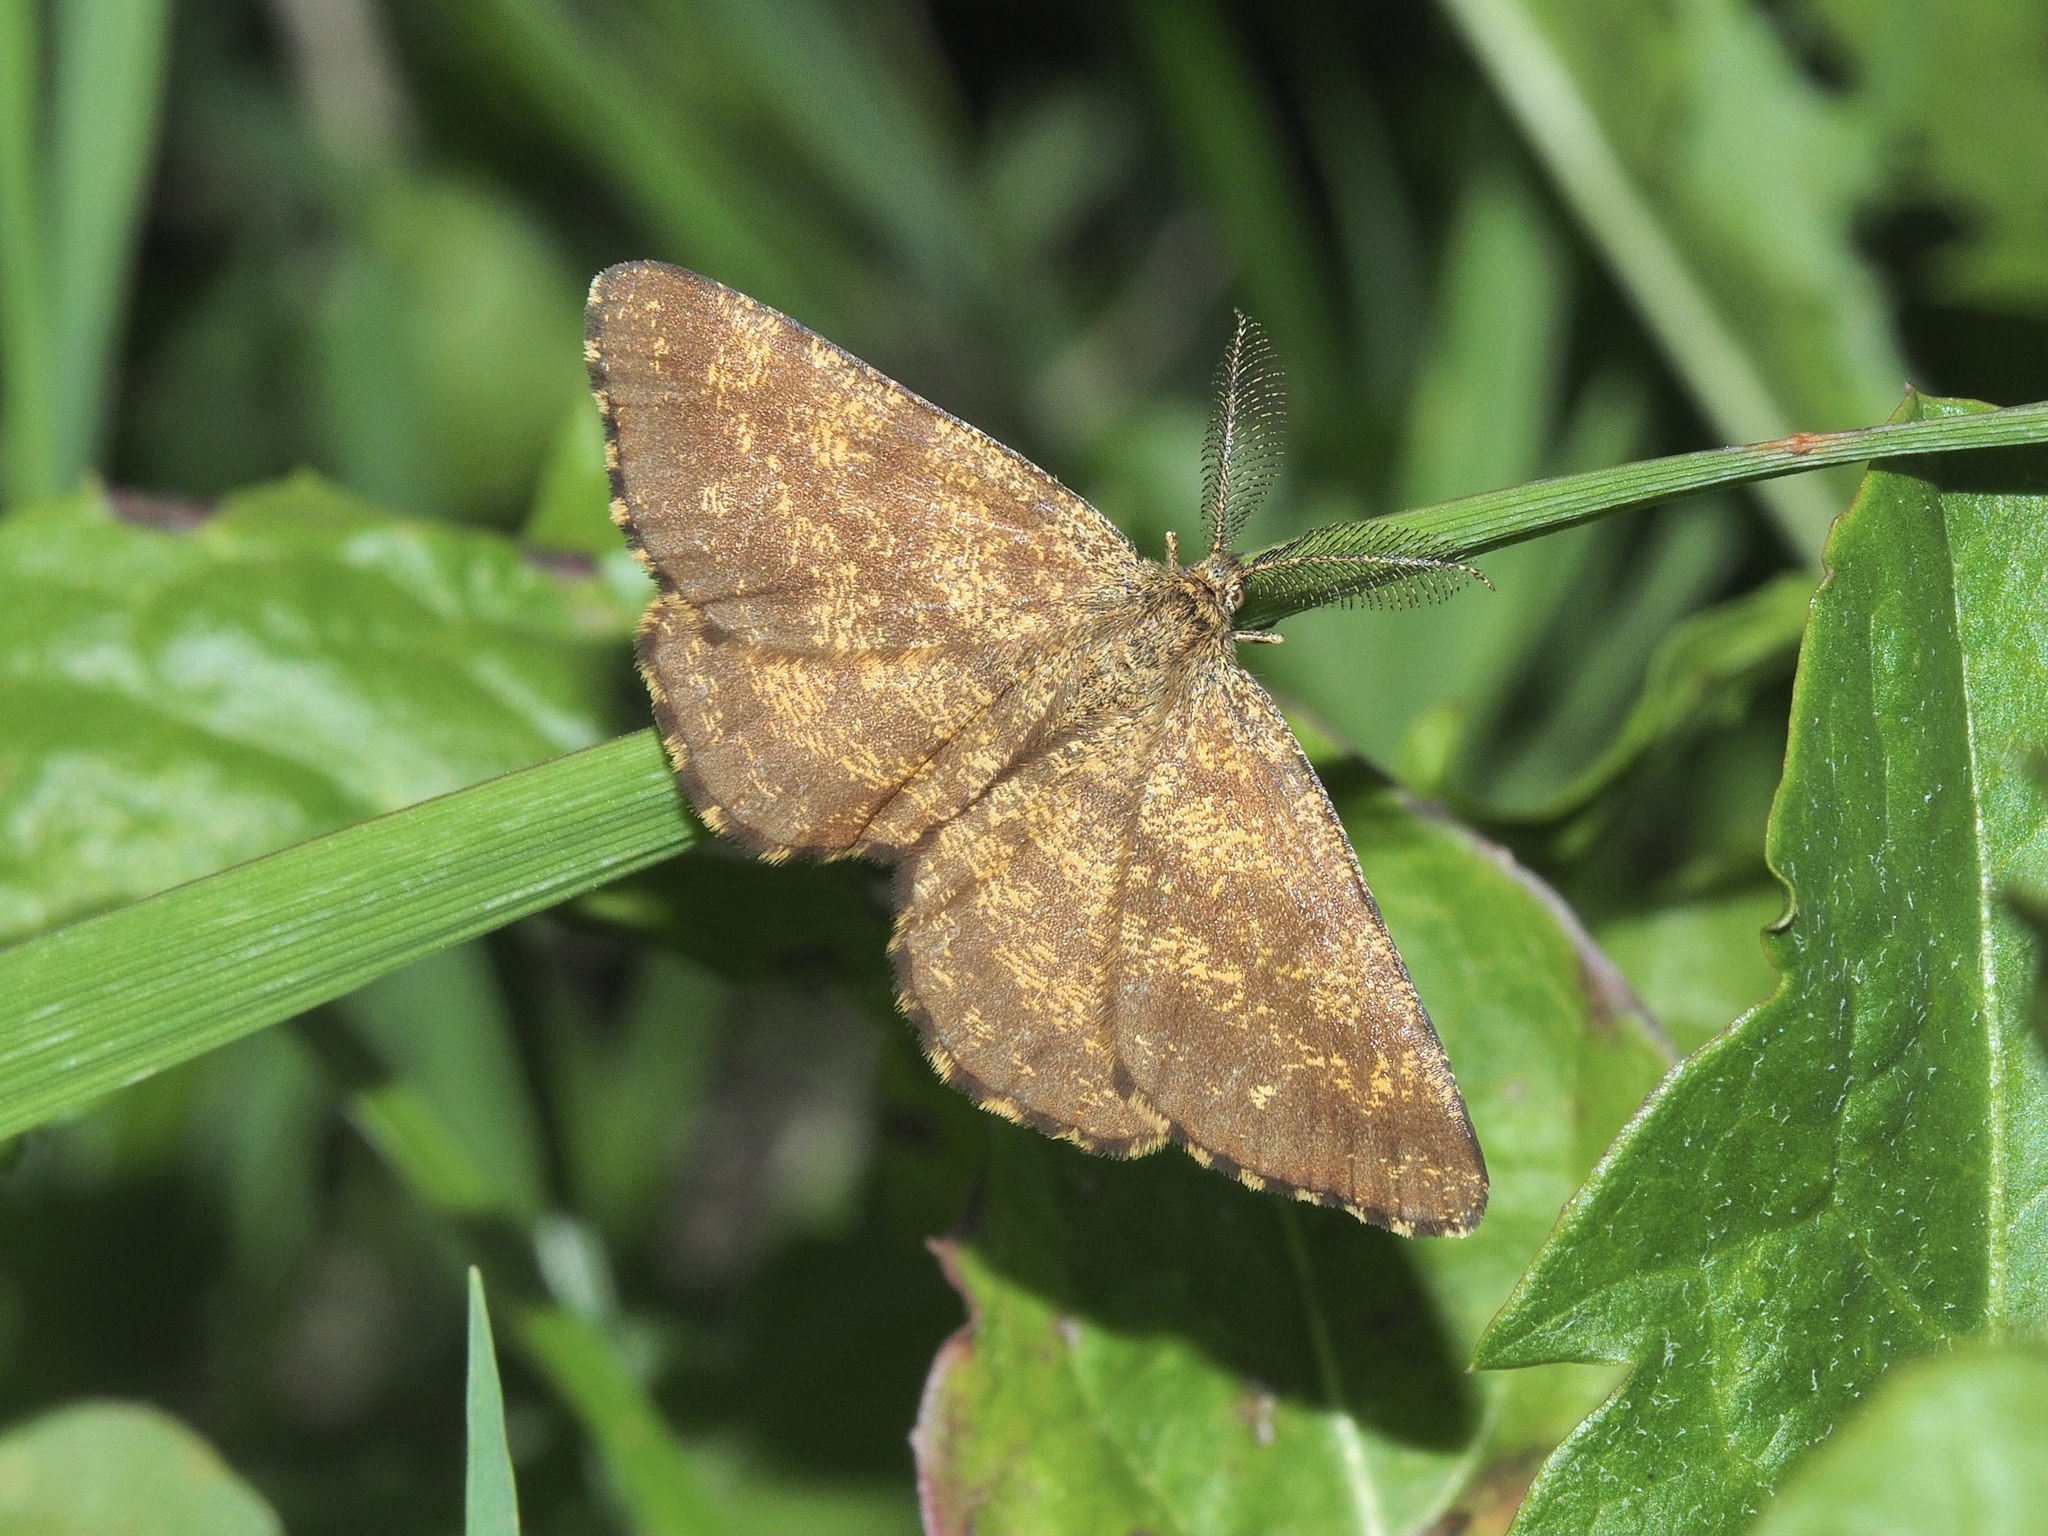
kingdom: Animalia
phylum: Arthropoda
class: Insecta
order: Lepidoptera
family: Geometridae
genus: Ematurga
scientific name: Ematurga atomaria
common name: Common heath
